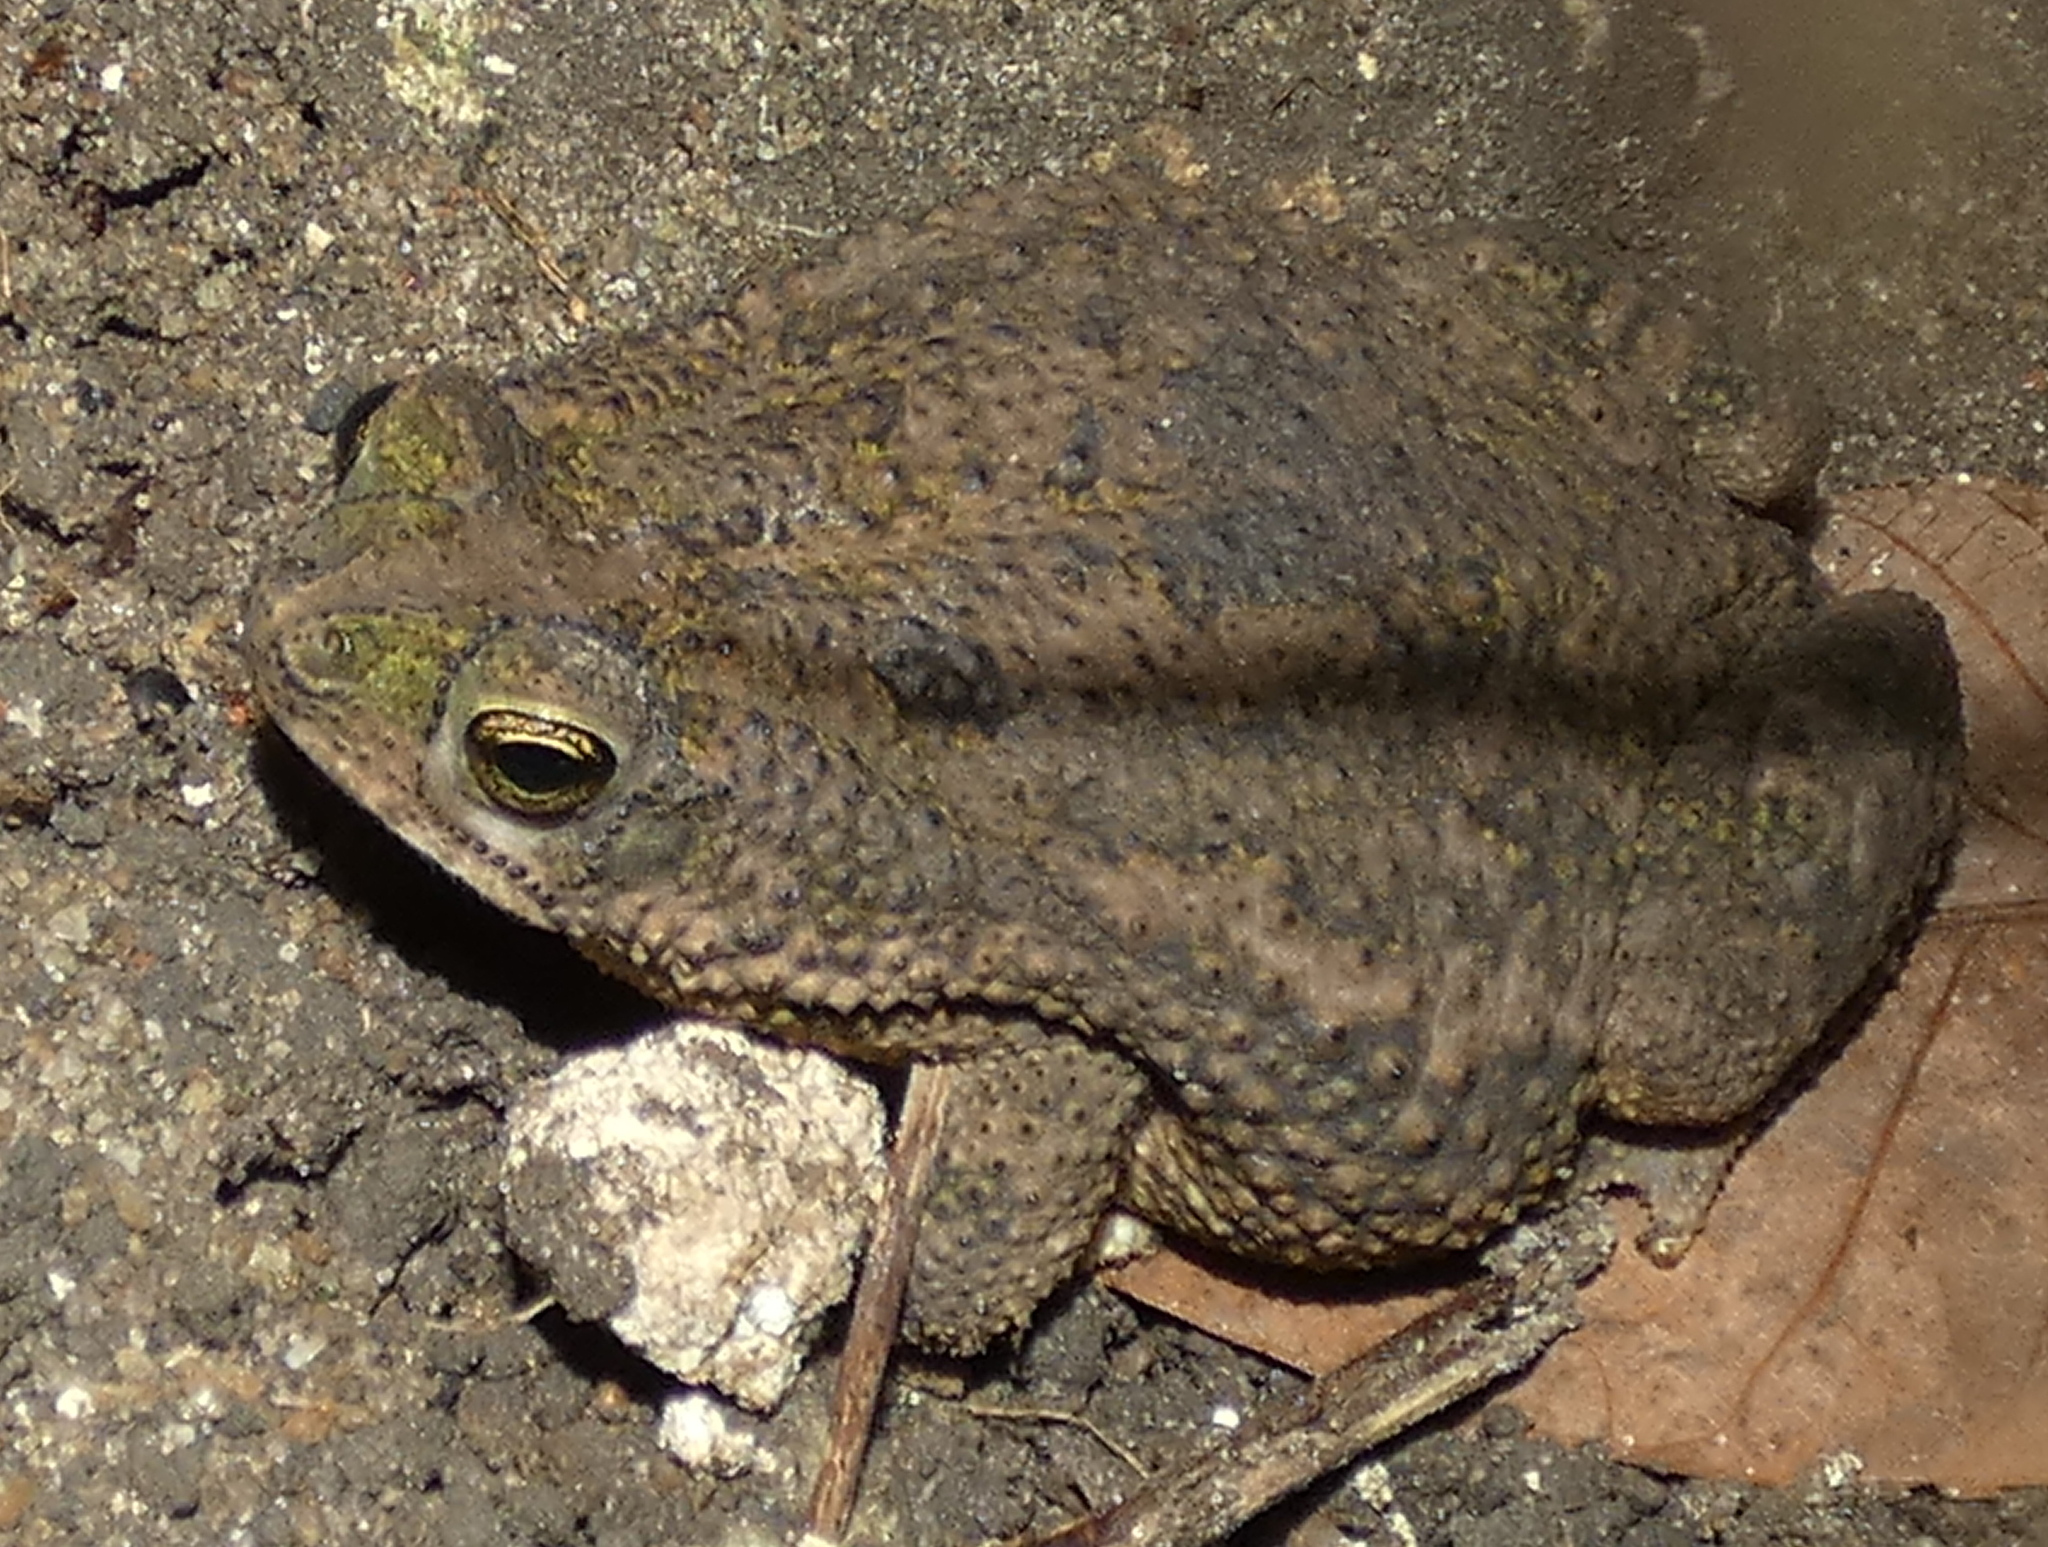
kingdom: Animalia
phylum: Chordata
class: Amphibia
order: Anura
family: Bufonidae
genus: Rhinella
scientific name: Rhinella granulosa
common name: Common lesser toad
